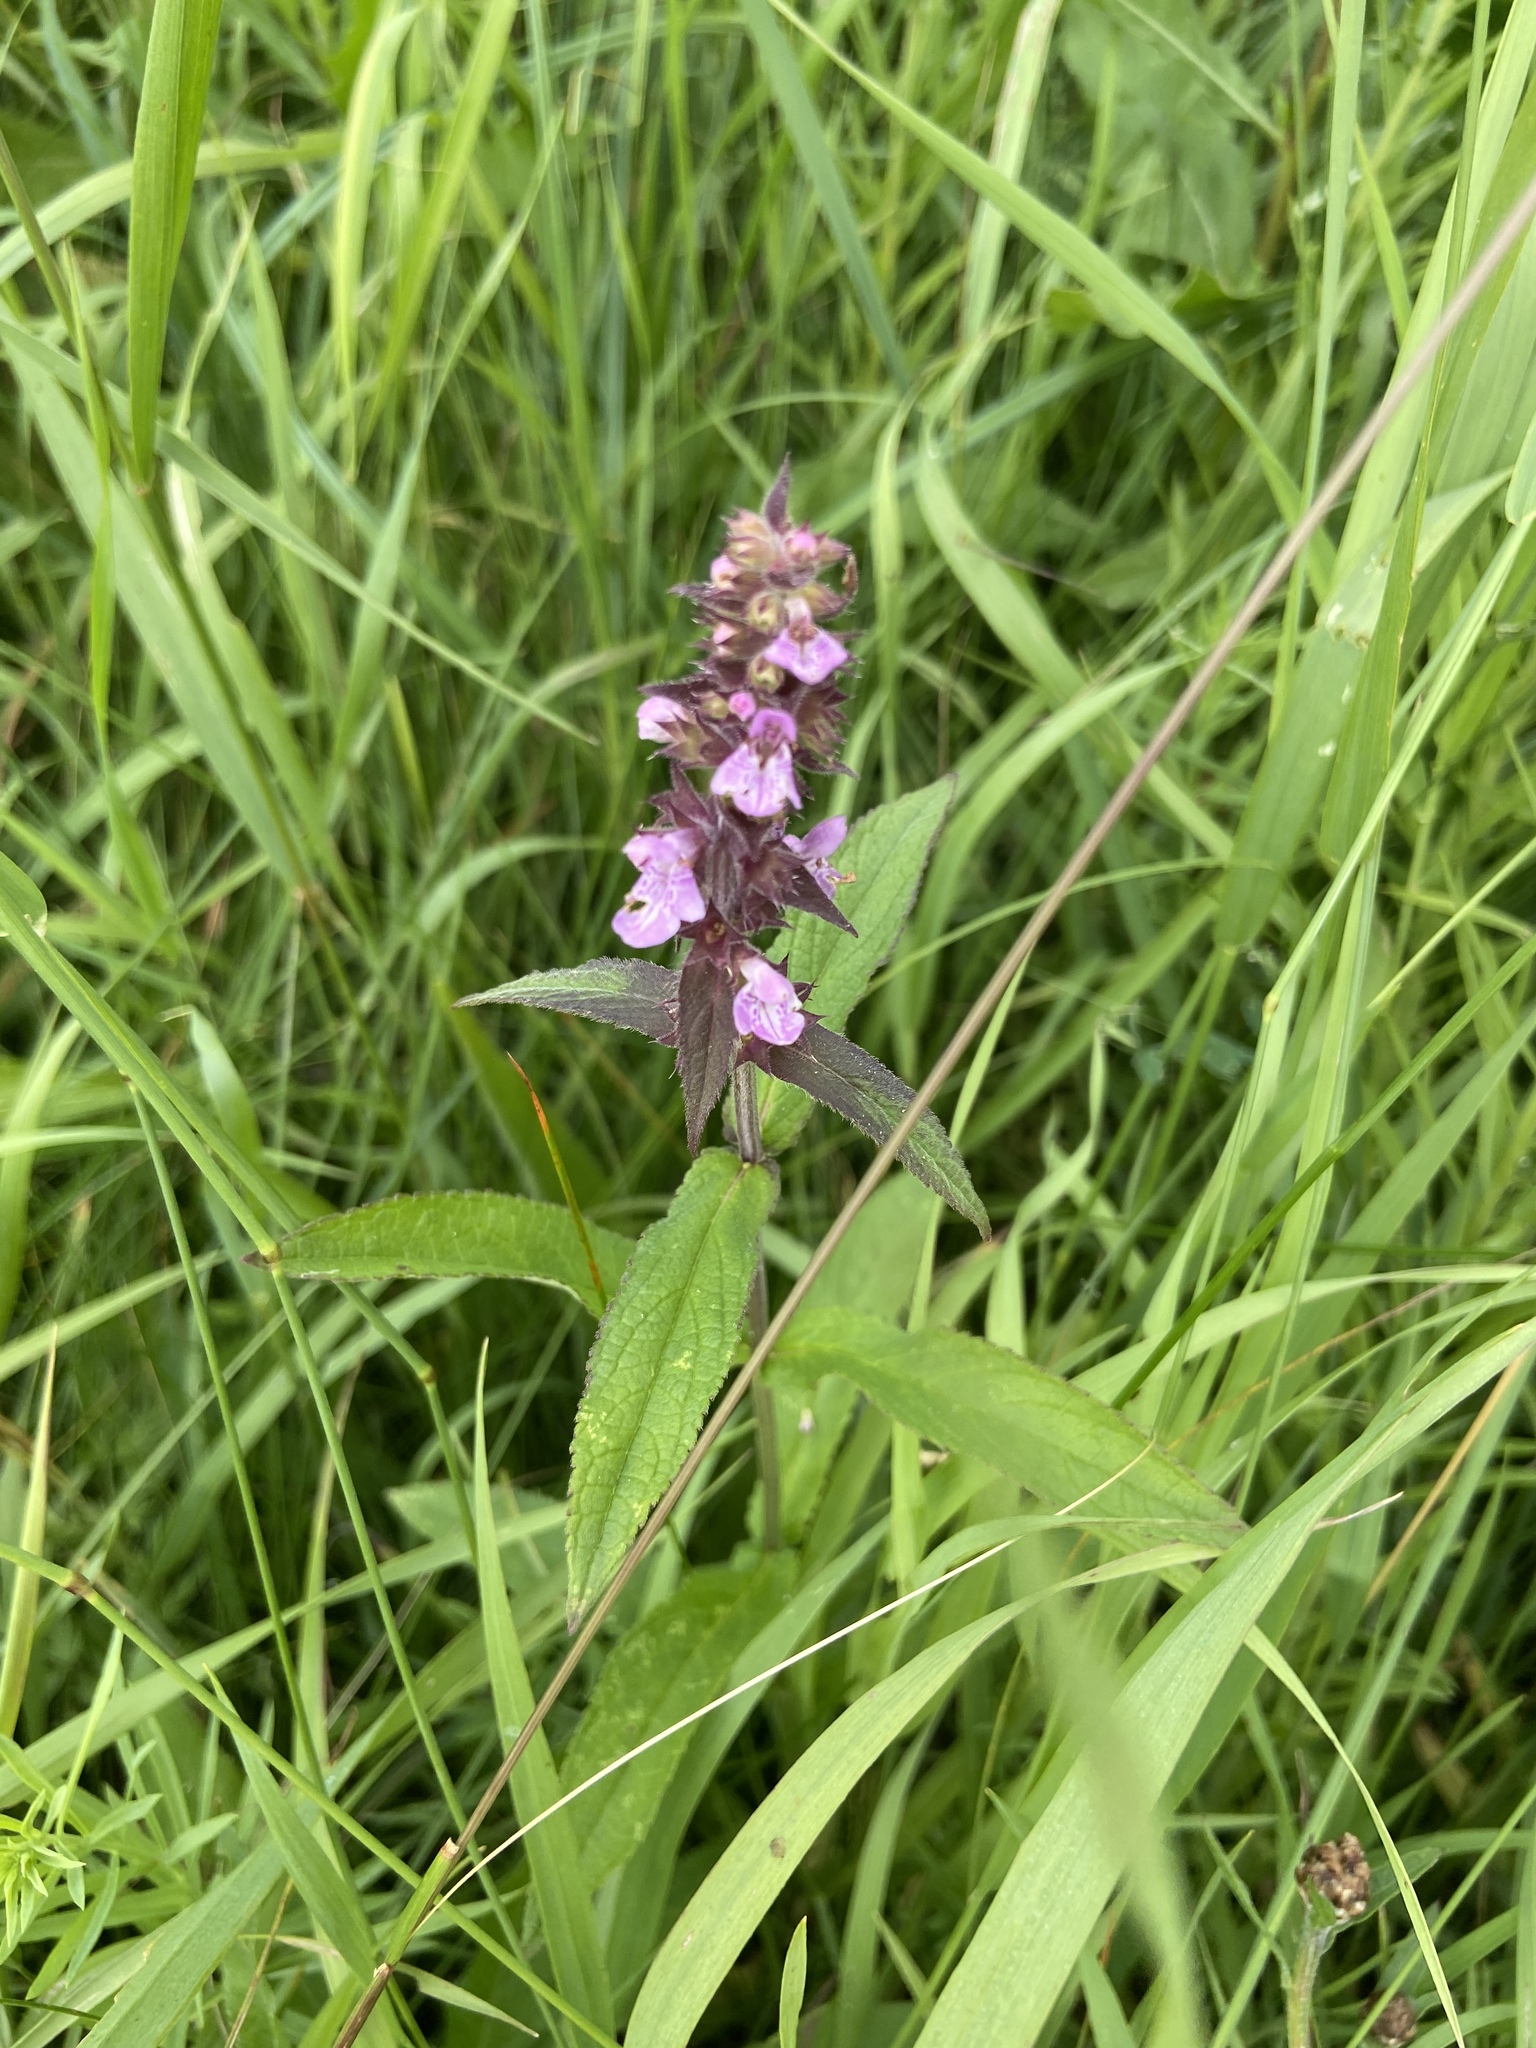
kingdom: Plantae
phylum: Tracheophyta
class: Magnoliopsida
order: Lamiales
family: Lamiaceae
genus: Stachys
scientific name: Stachys palustris
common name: Marsh woundwort
